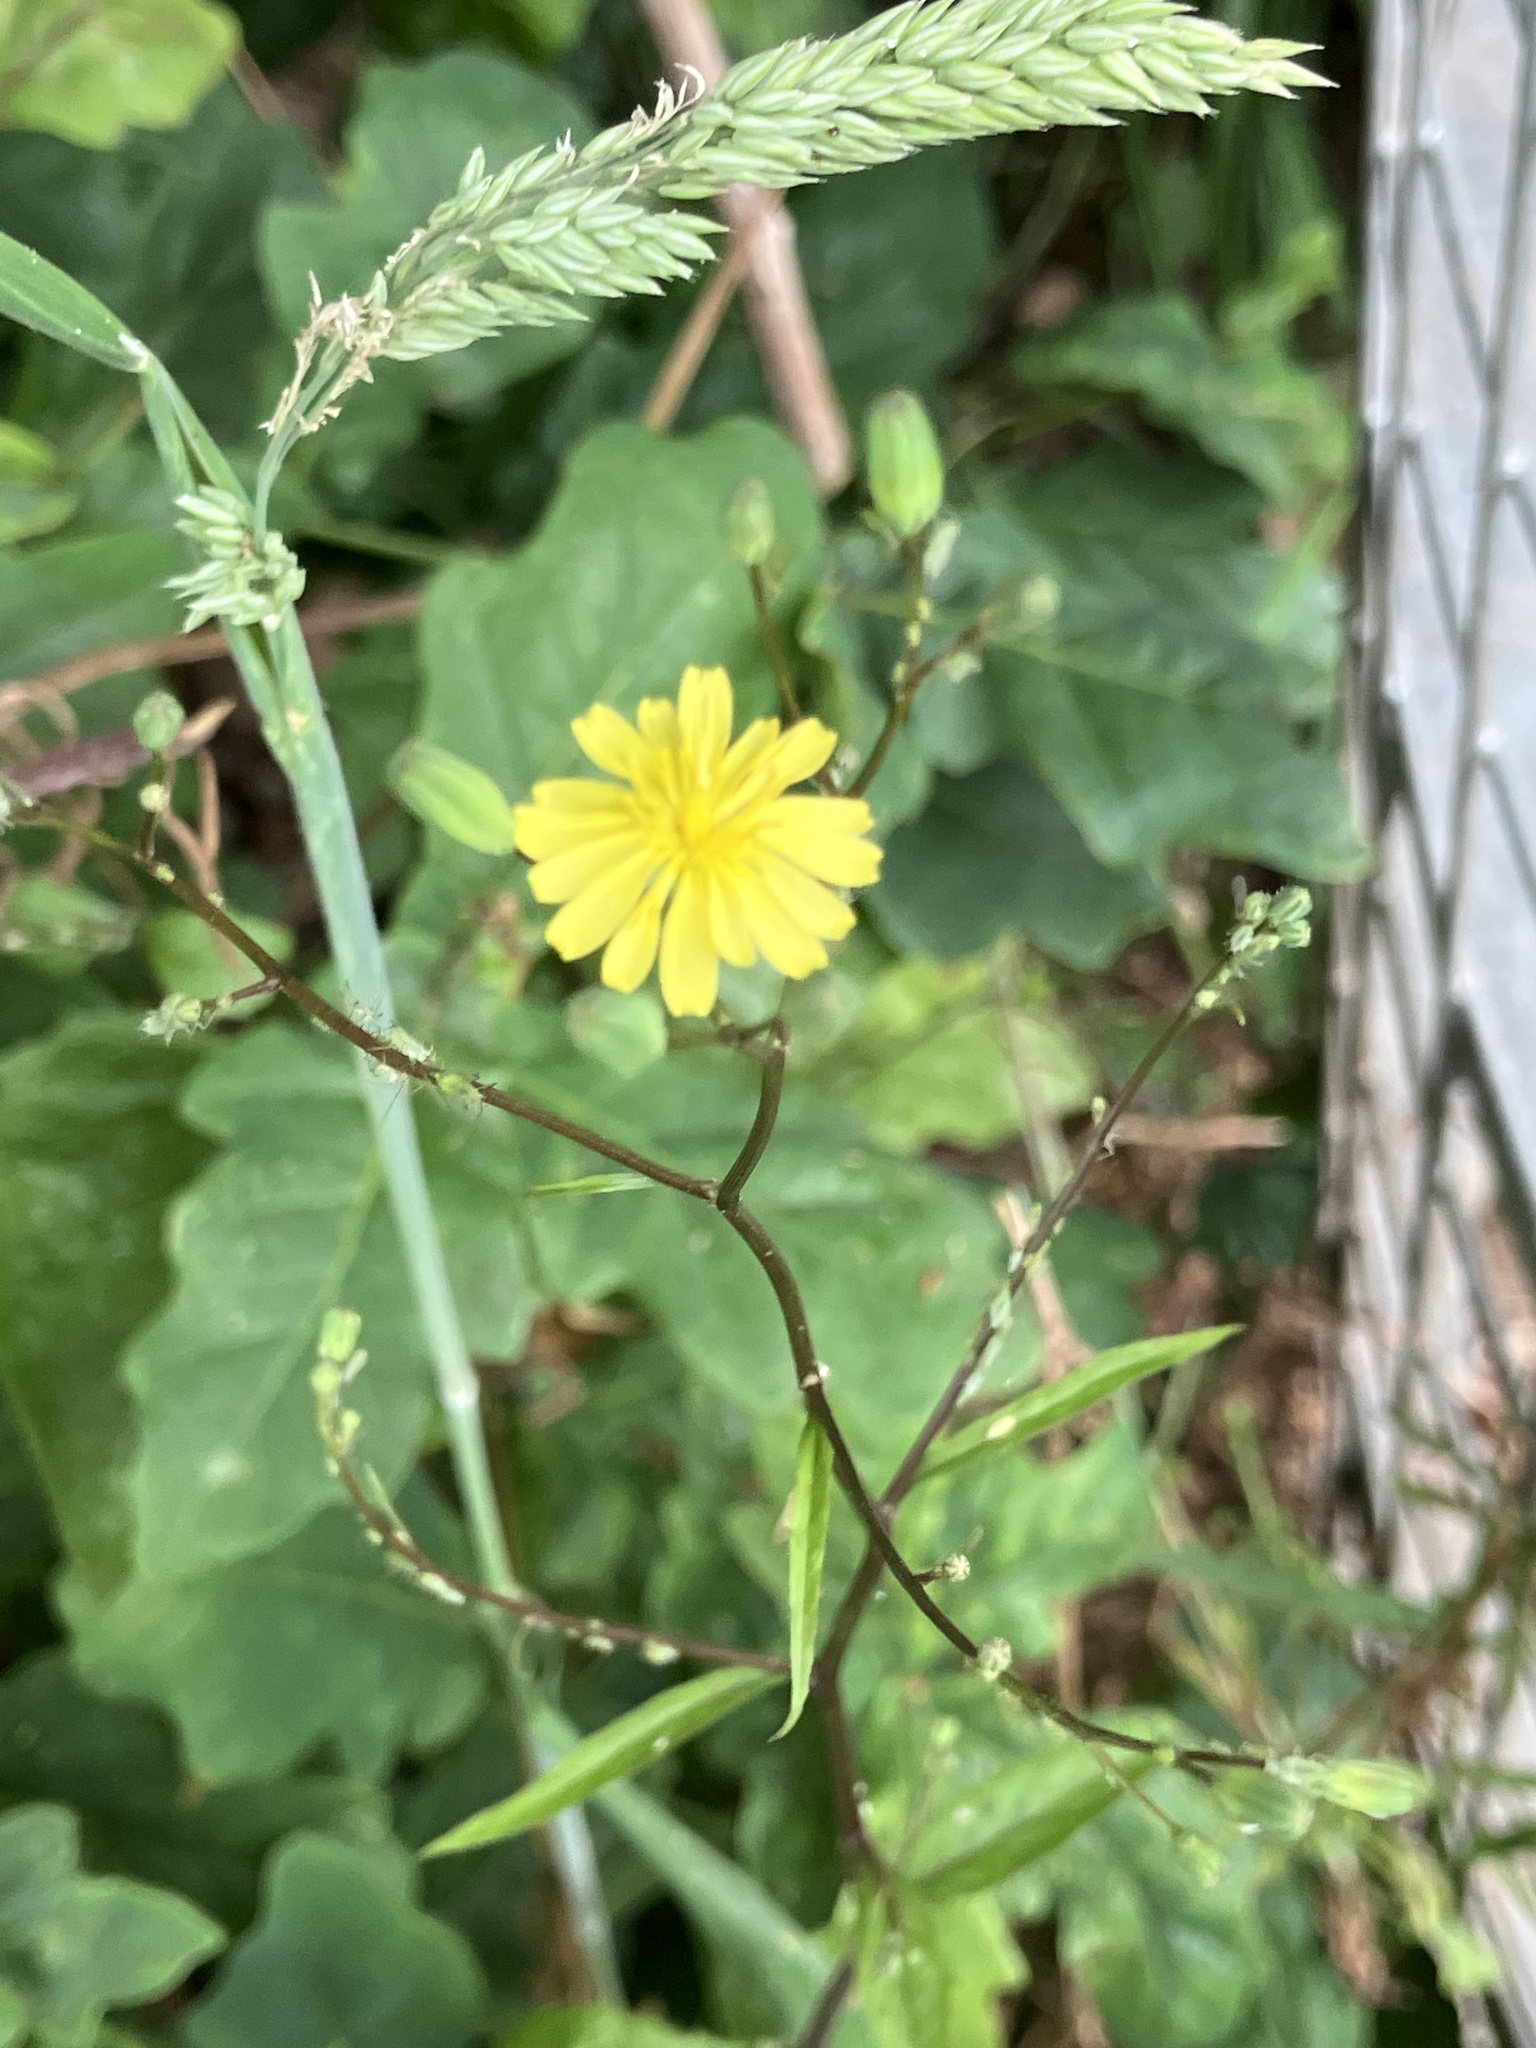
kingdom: Plantae
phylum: Tracheophyta
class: Magnoliopsida
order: Asterales
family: Asteraceae
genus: Lapsana
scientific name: Lapsana communis
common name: Nipplewort
